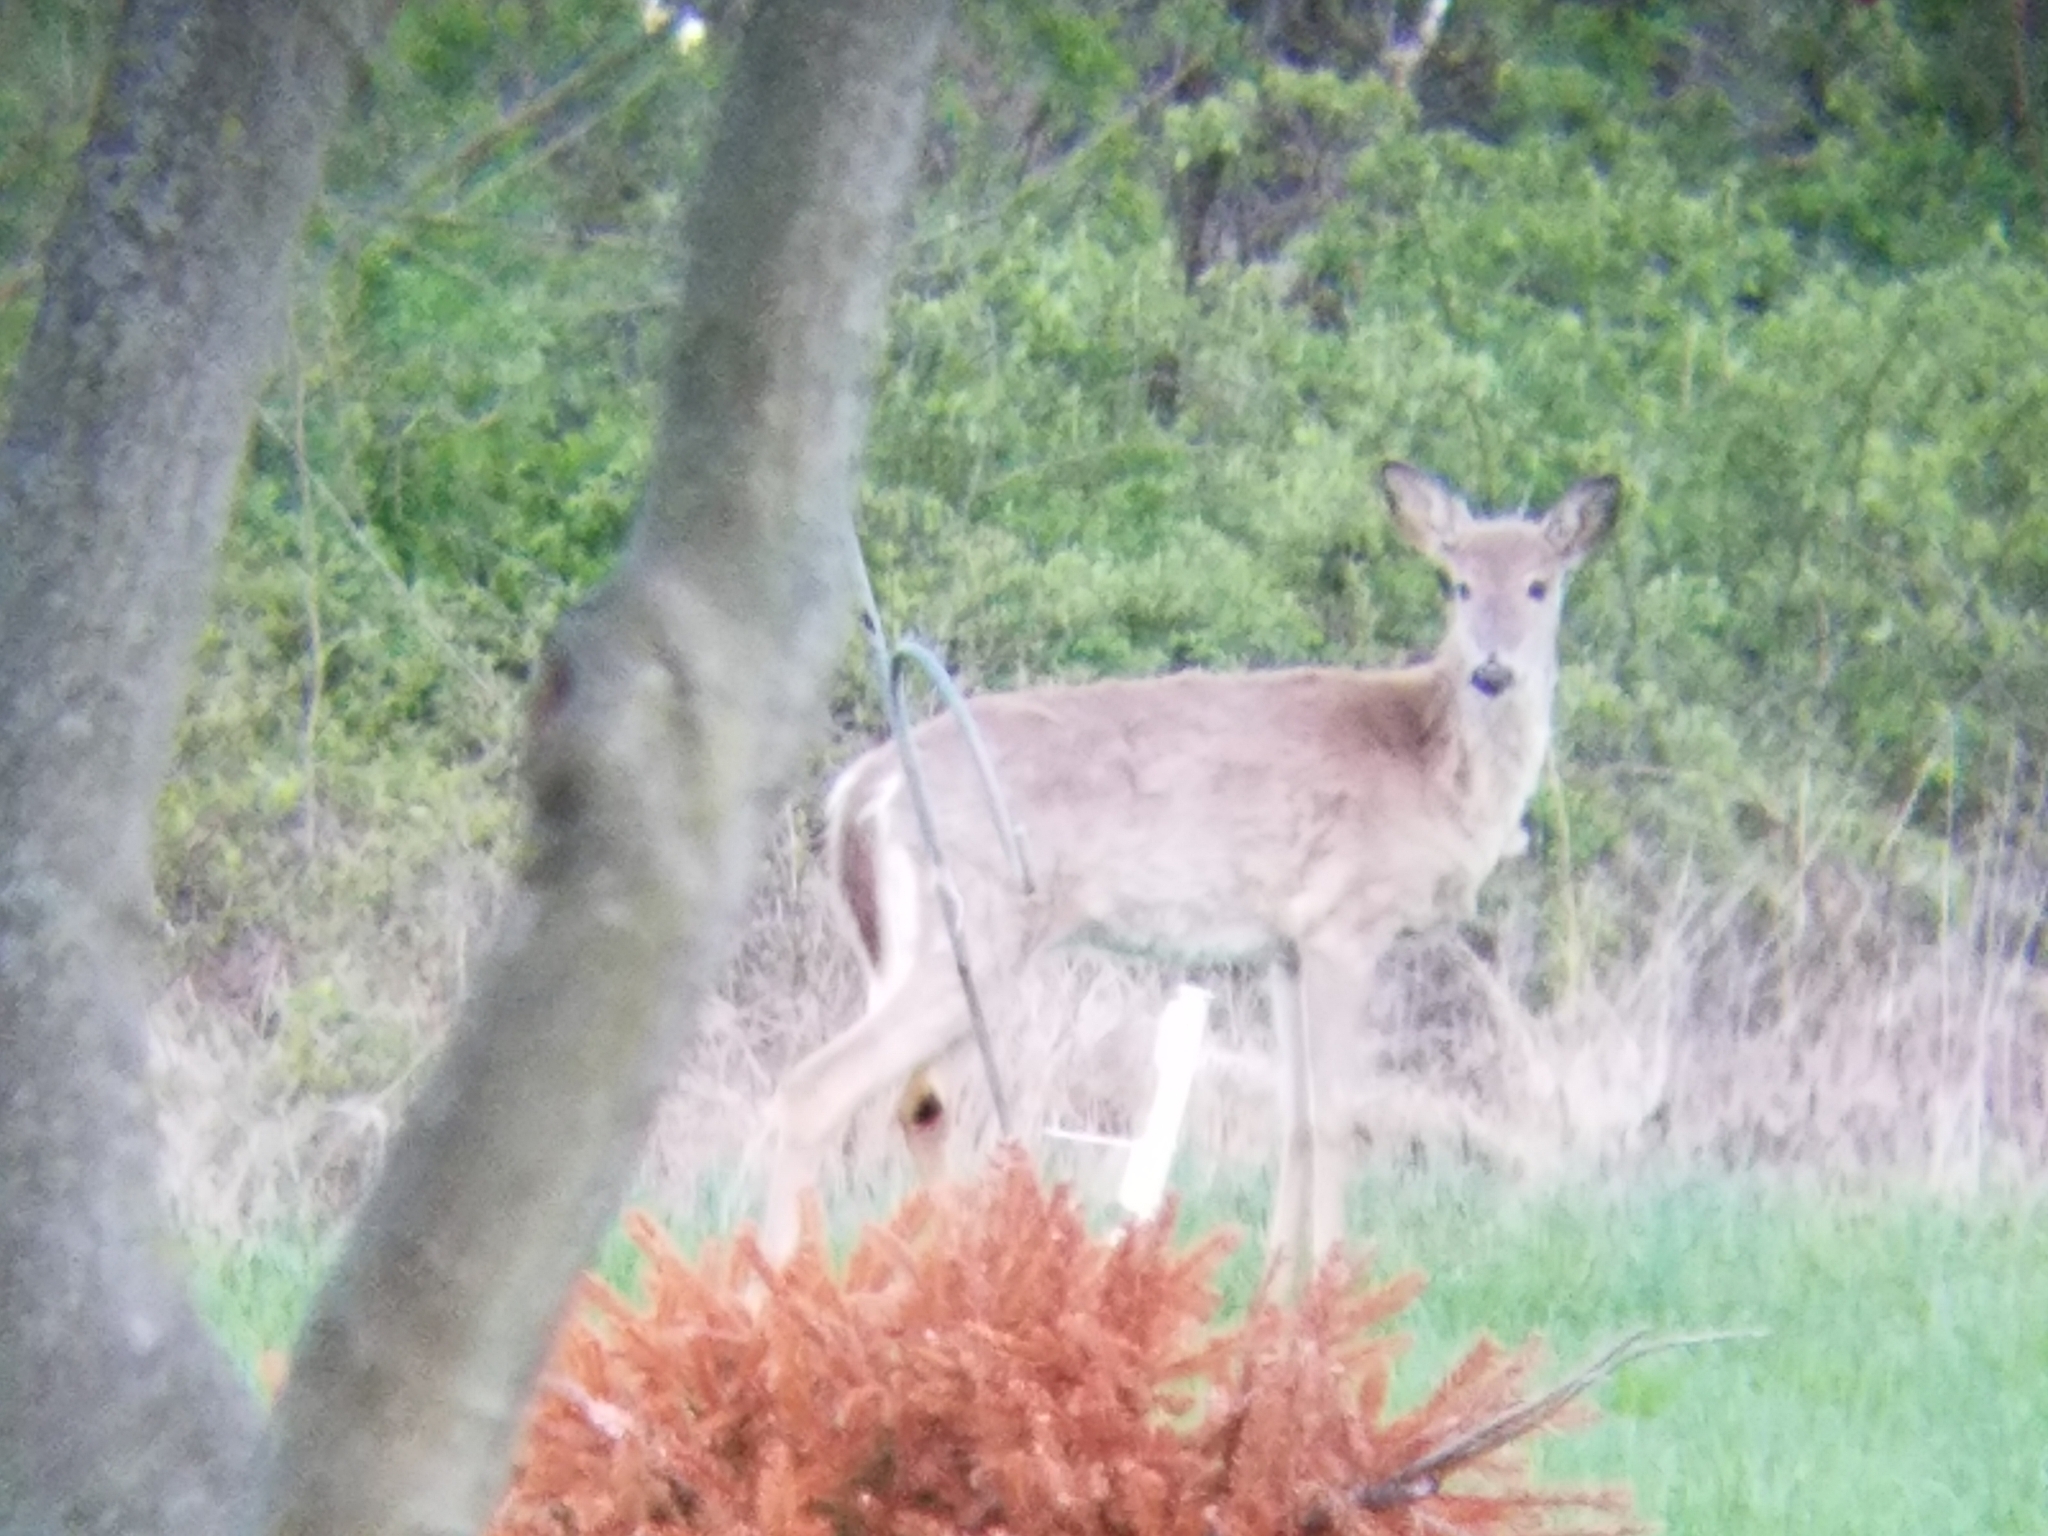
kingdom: Animalia
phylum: Chordata
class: Mammalia
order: Artiodactyla
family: Cervidae
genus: Odocoileus
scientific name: Odocoileus virginianus
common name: White-tailed deer
